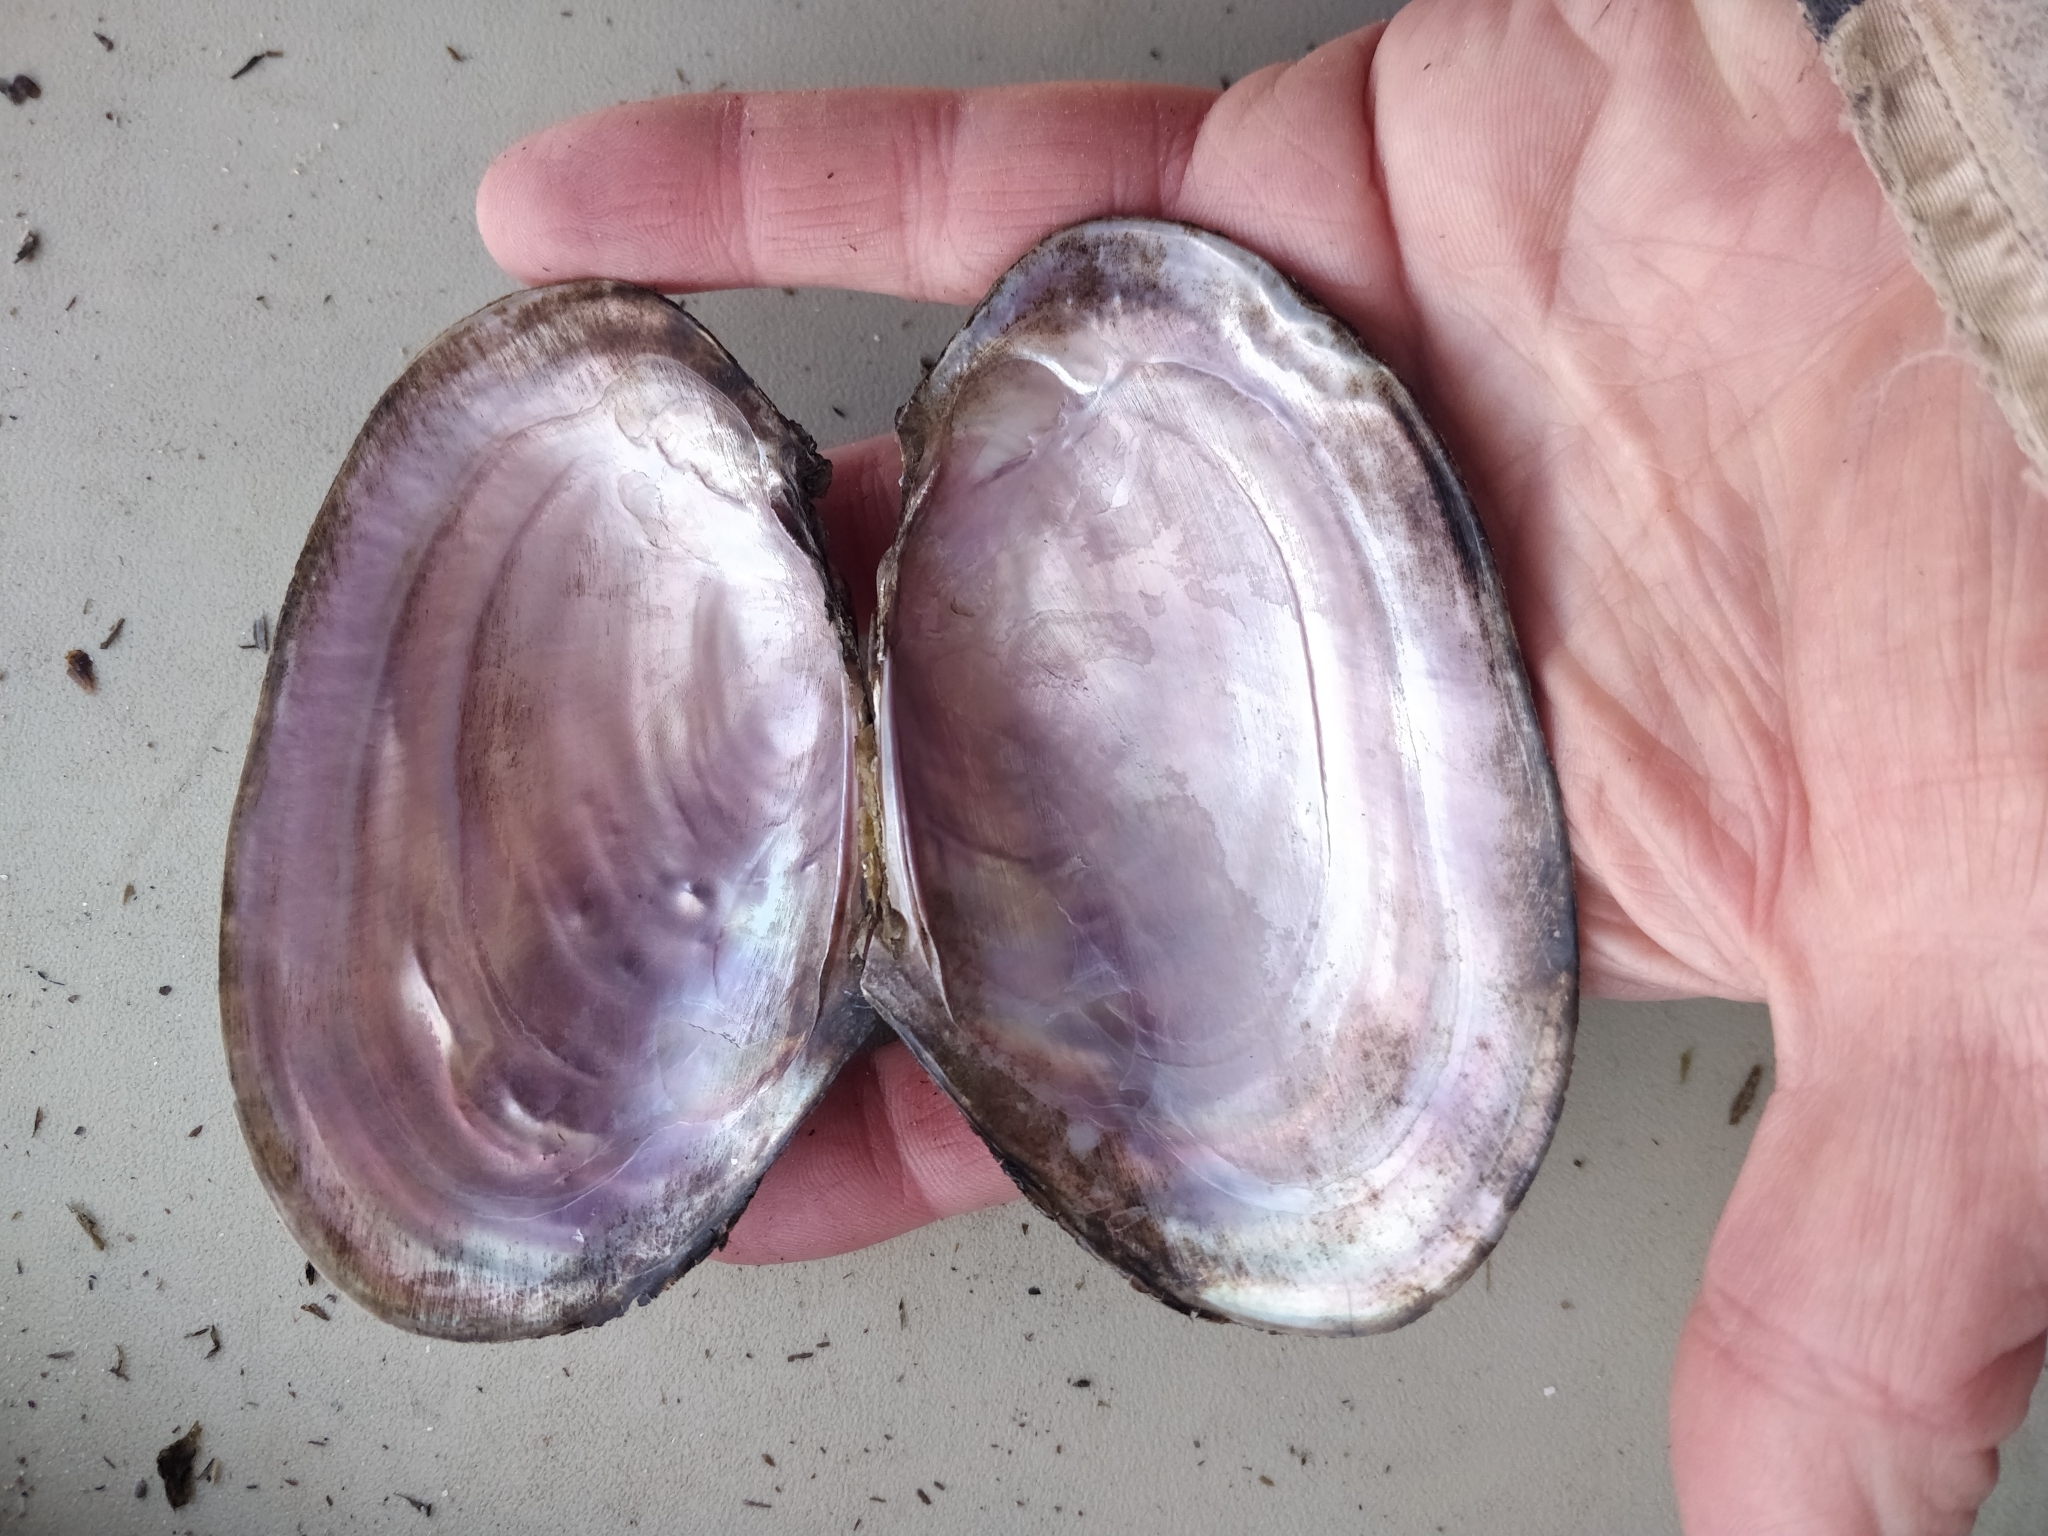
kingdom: Animalia
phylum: Mollusca
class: Bivalvia
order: Unionida
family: Unionidae
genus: Potamilus
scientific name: Potamilus ohiensis
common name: Pink papershell
